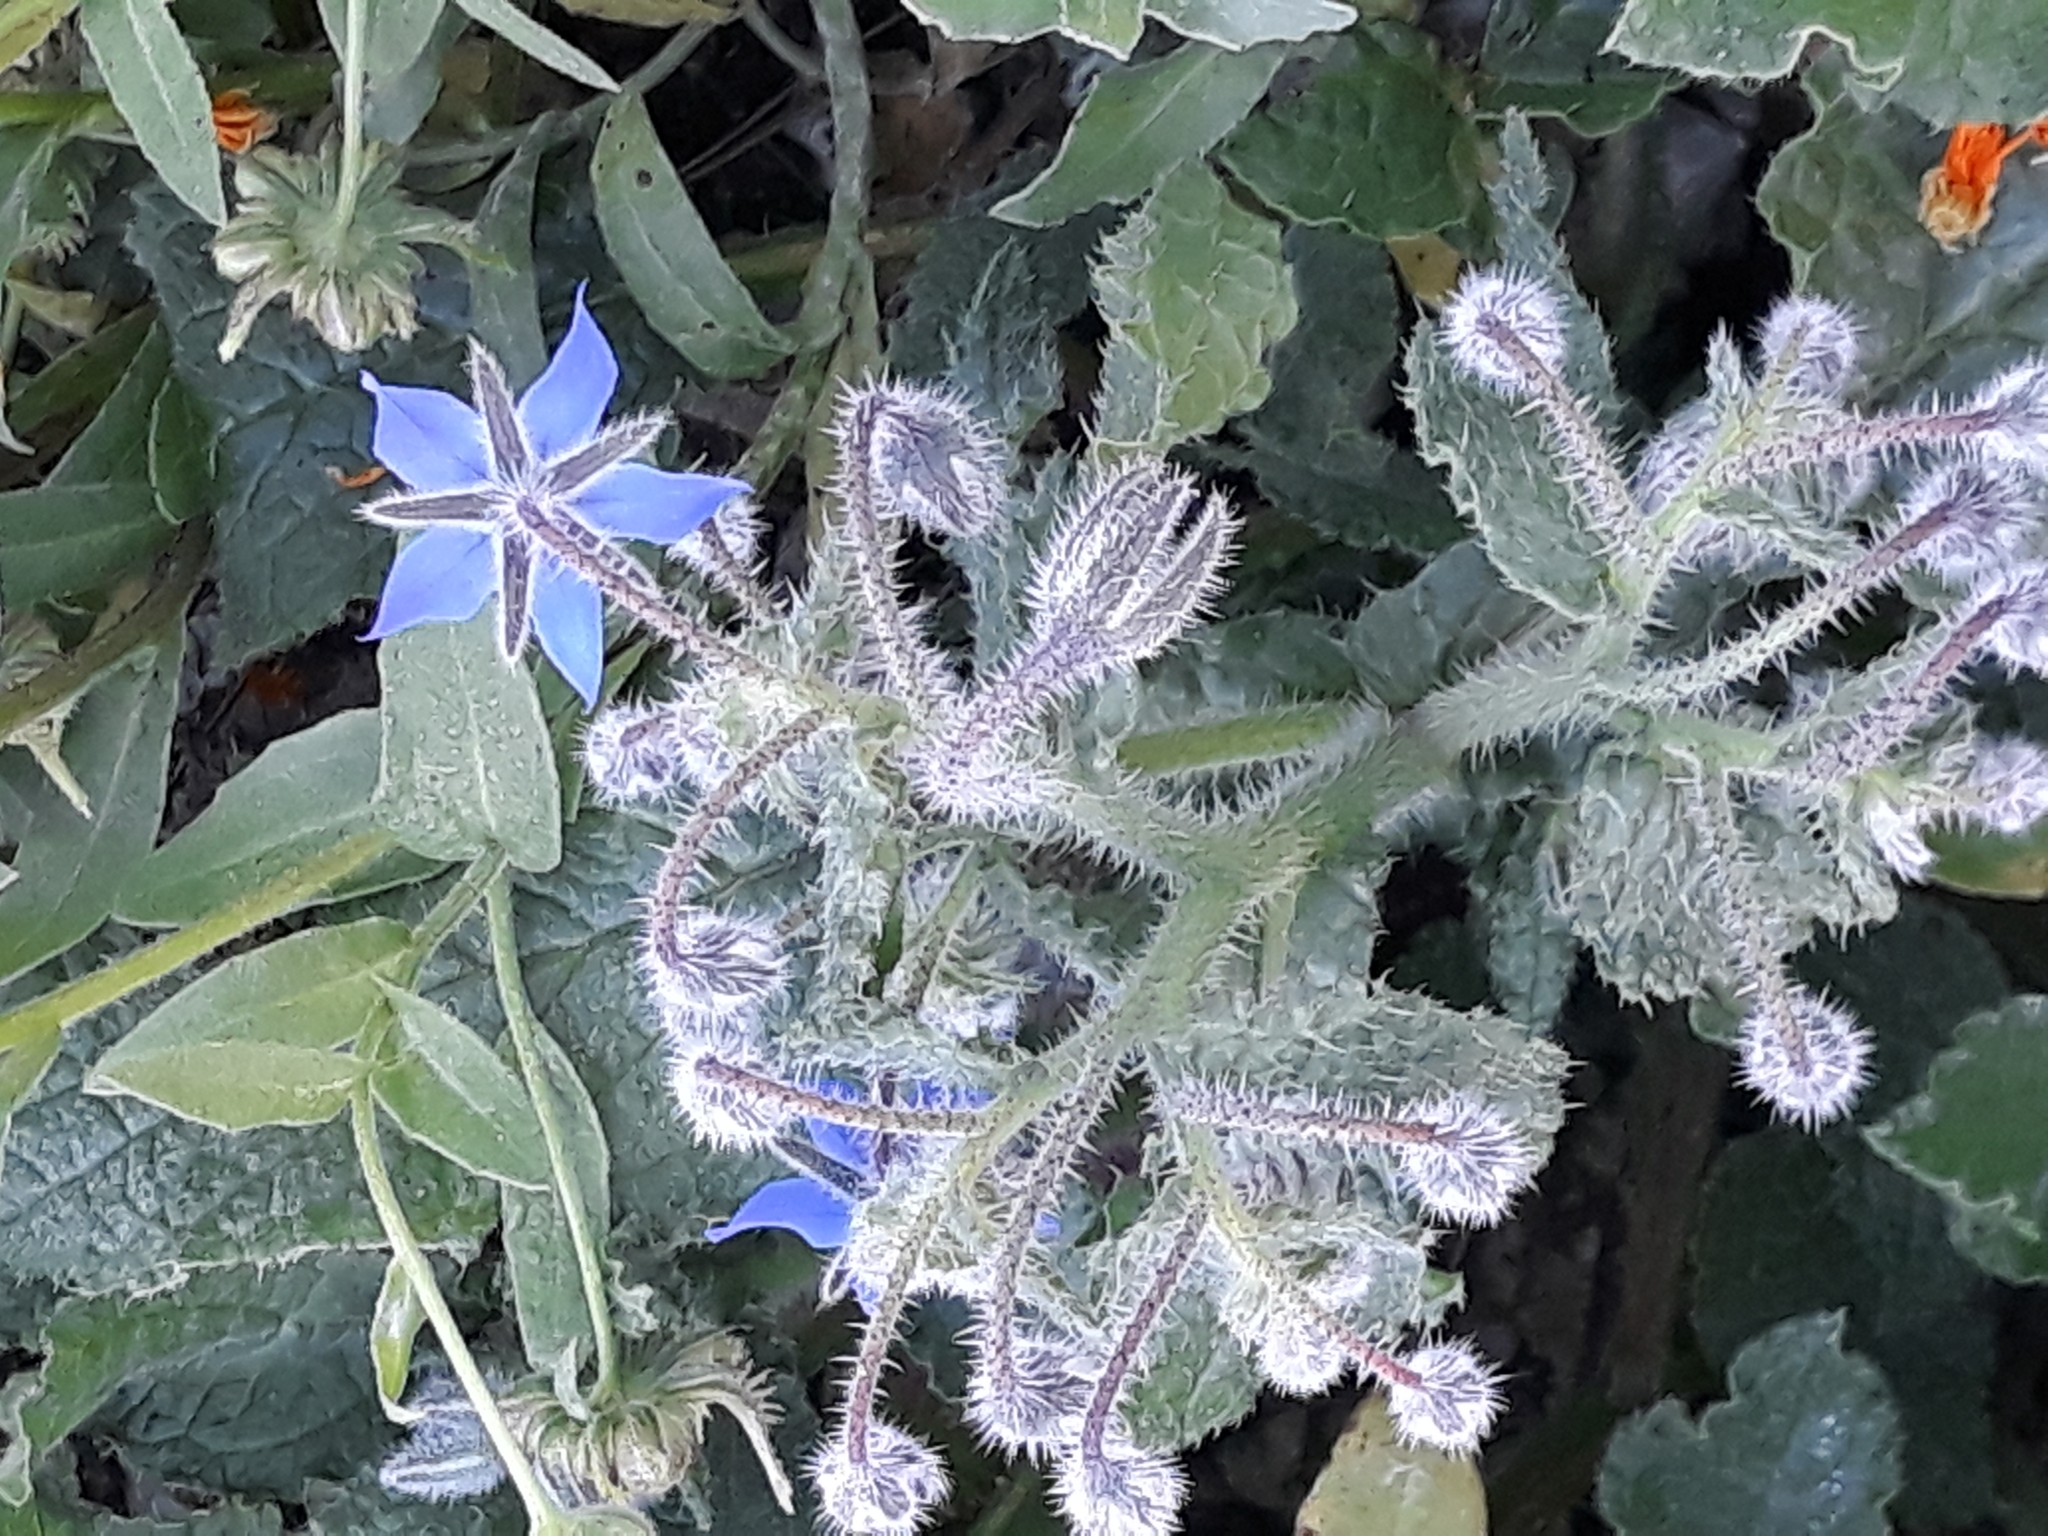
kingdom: Plantae
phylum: Tracheophyta
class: Magnoliopsida
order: Boraginales
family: Boraginaceae
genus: Borago
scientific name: Borago officinalis
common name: Borage
